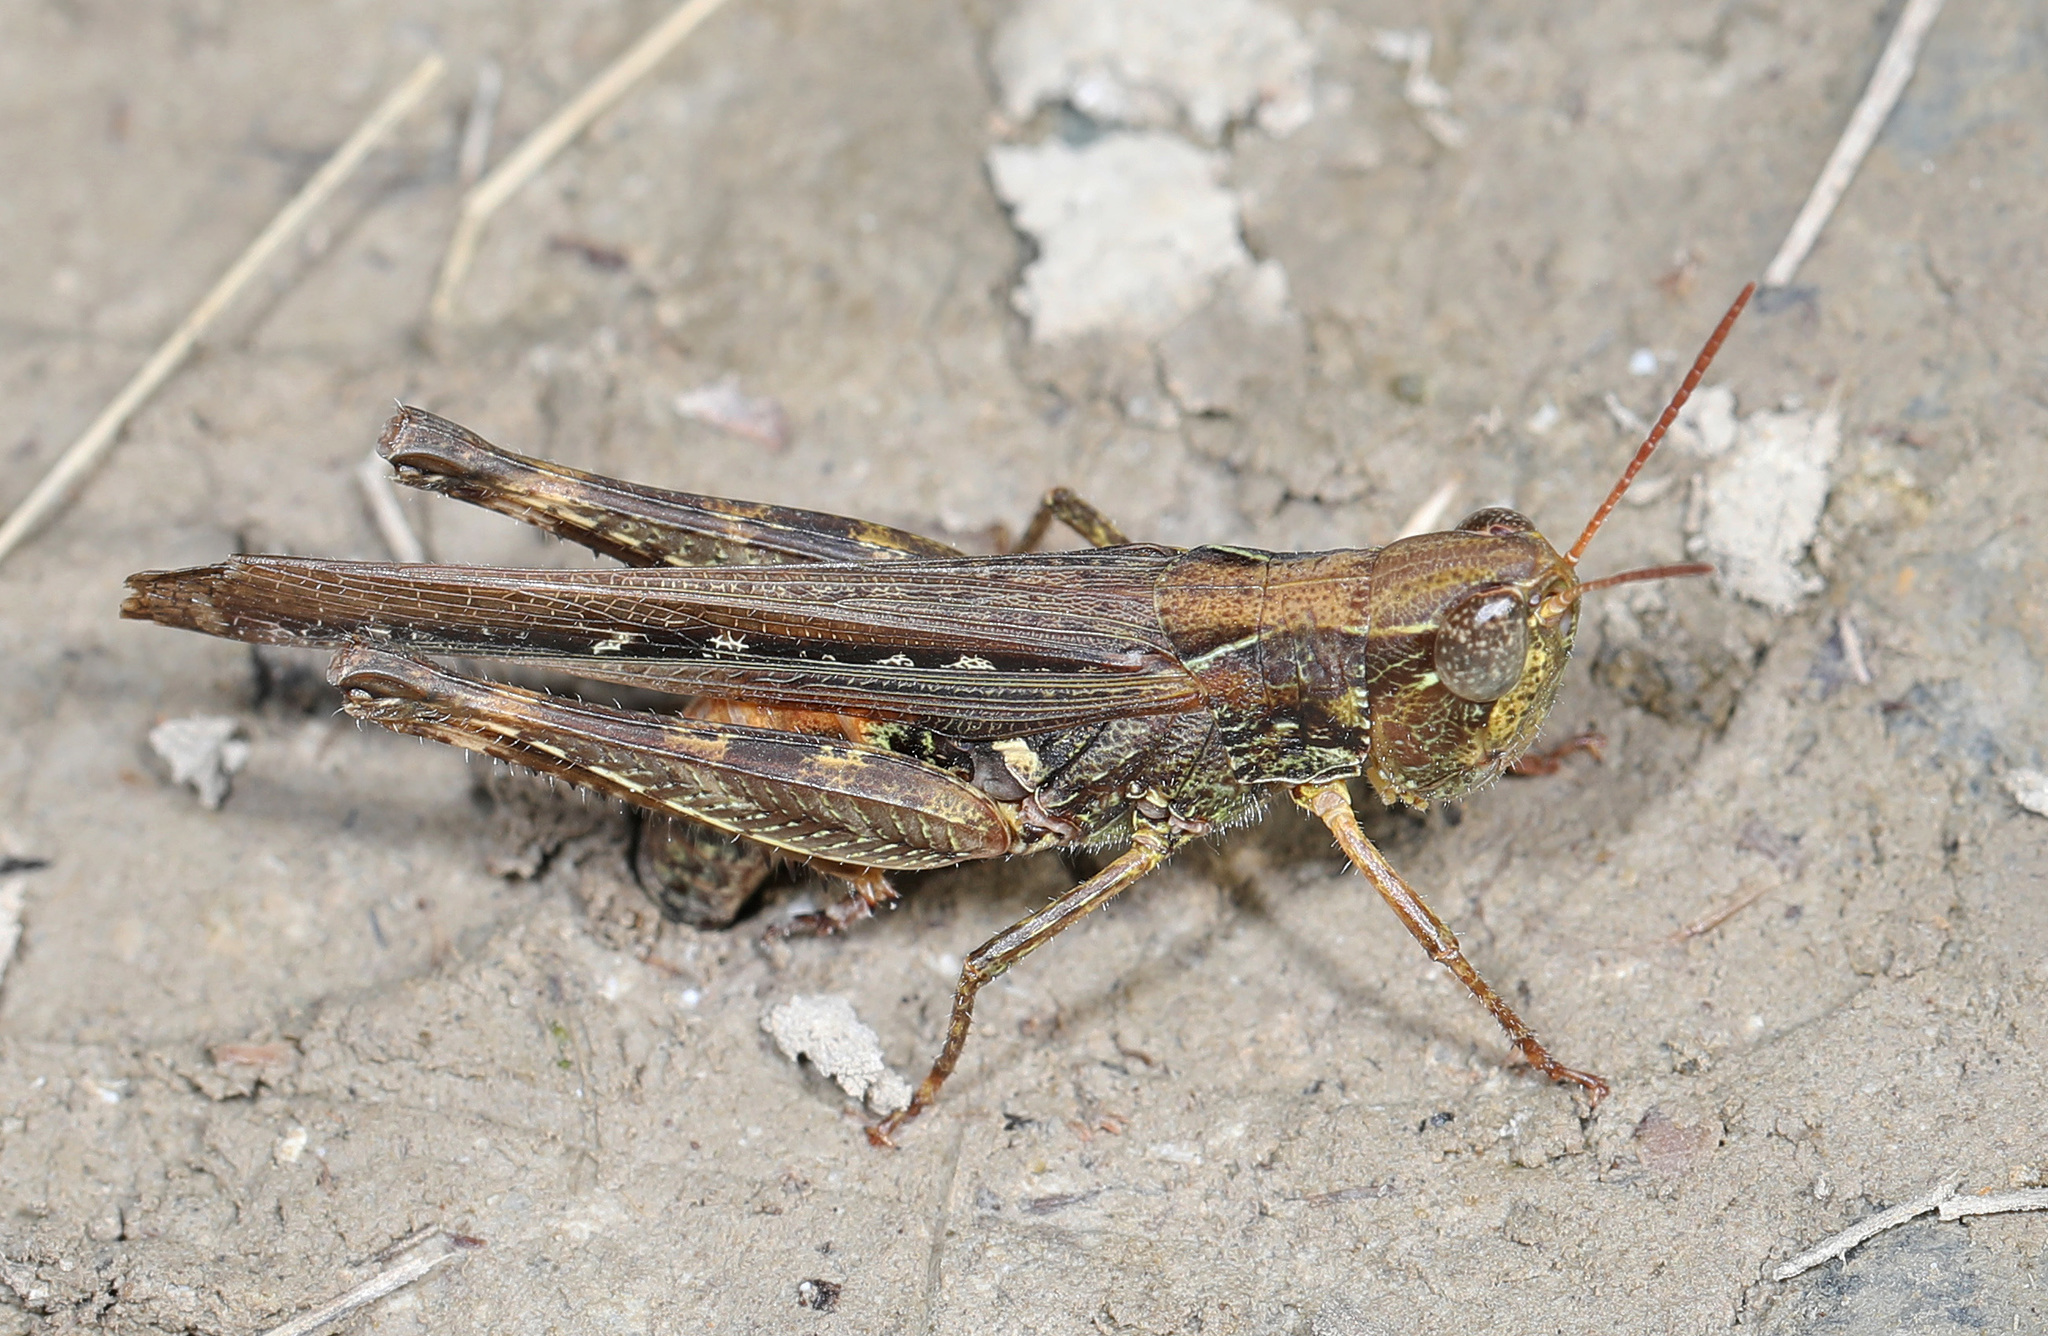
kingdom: Animalia
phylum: Arthropoda
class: Insecta
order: Orthoptera
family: Acrididae
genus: Orphulella
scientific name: Orphulella pelidna
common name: Spotted-wing grasshopper
